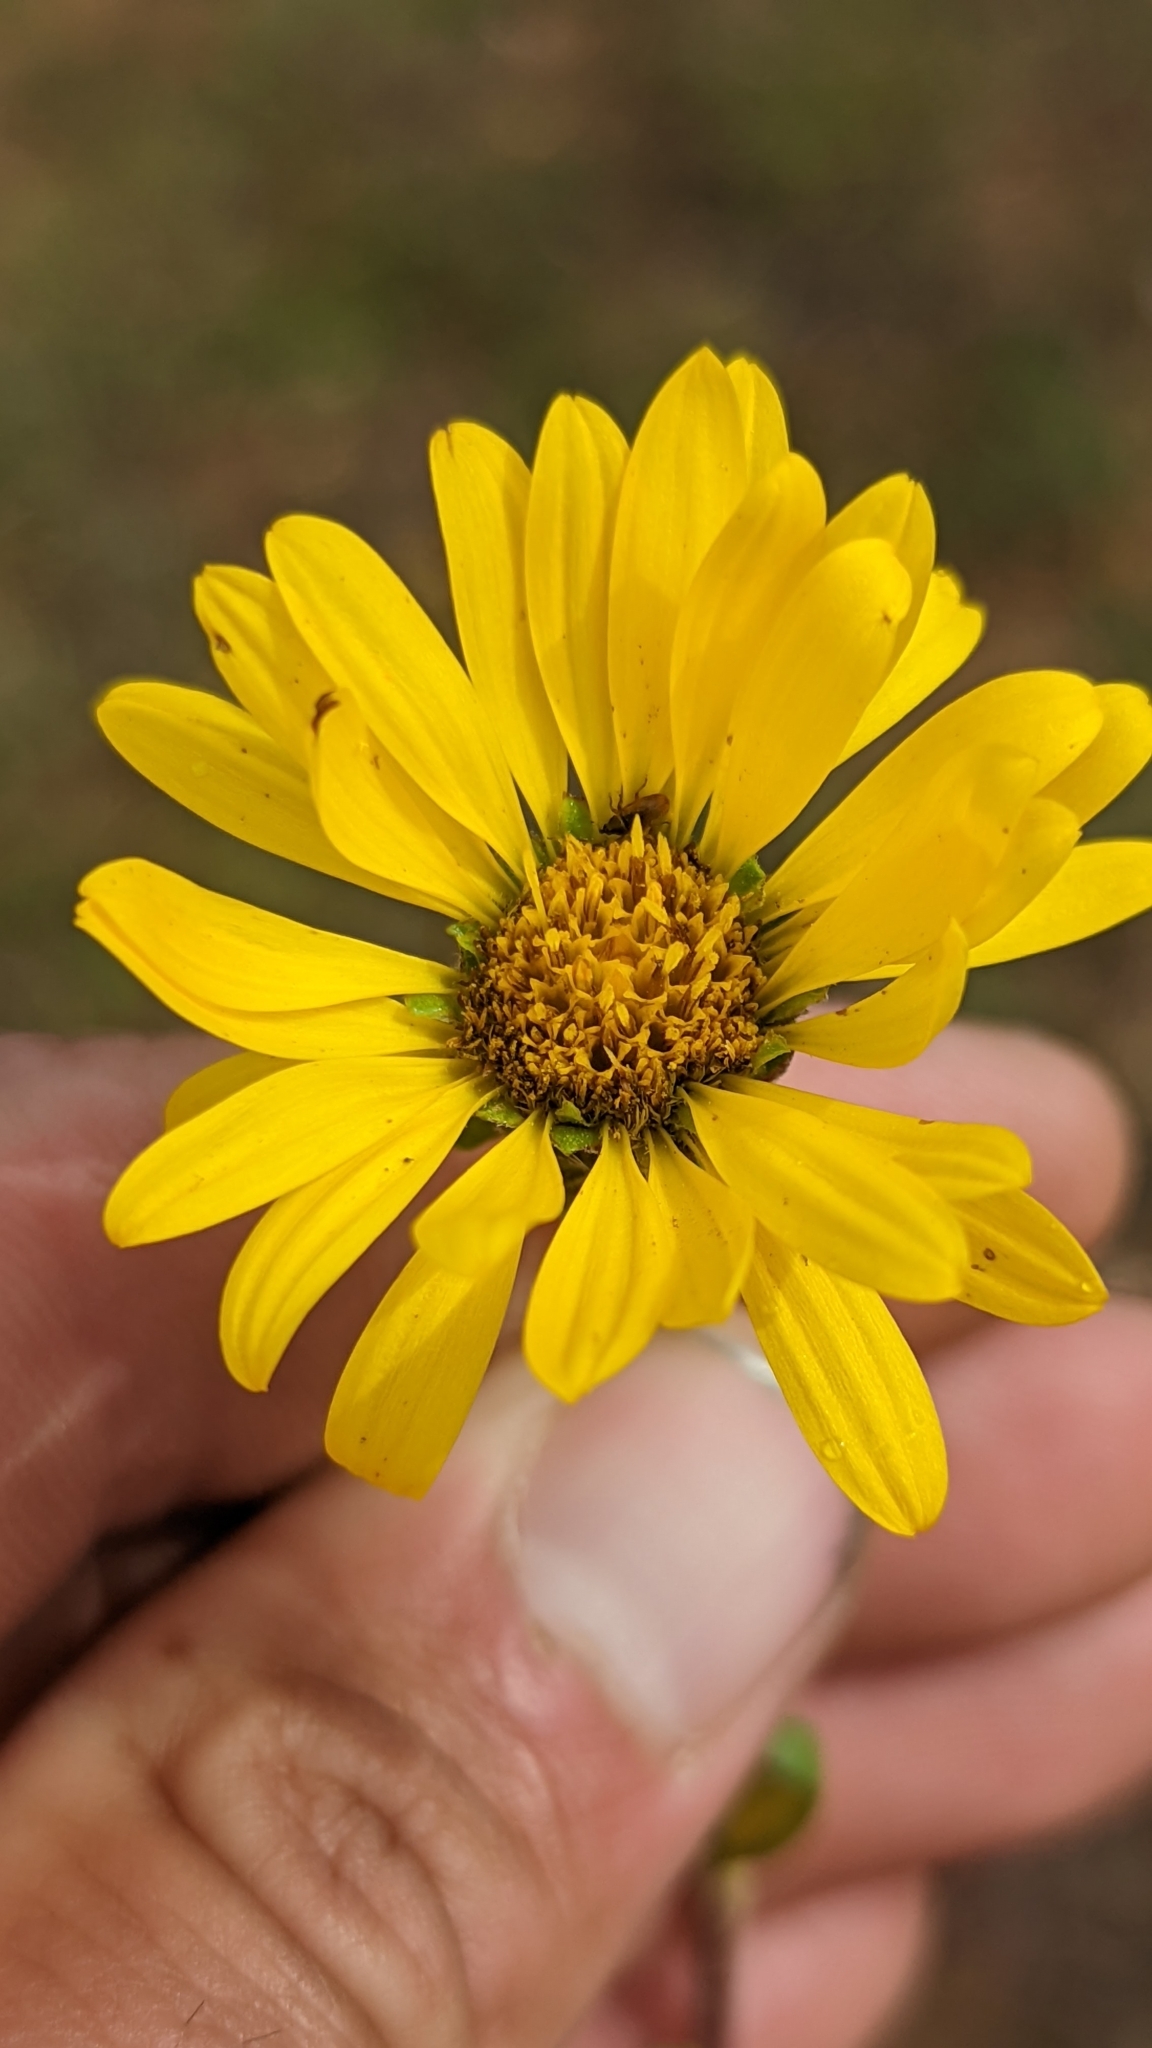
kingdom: Plantae
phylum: Tracheophyta
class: Magnoliopsida
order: Asterales
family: Asteraceae
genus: Pyrrocoma
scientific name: Pyrrocoma clementis
